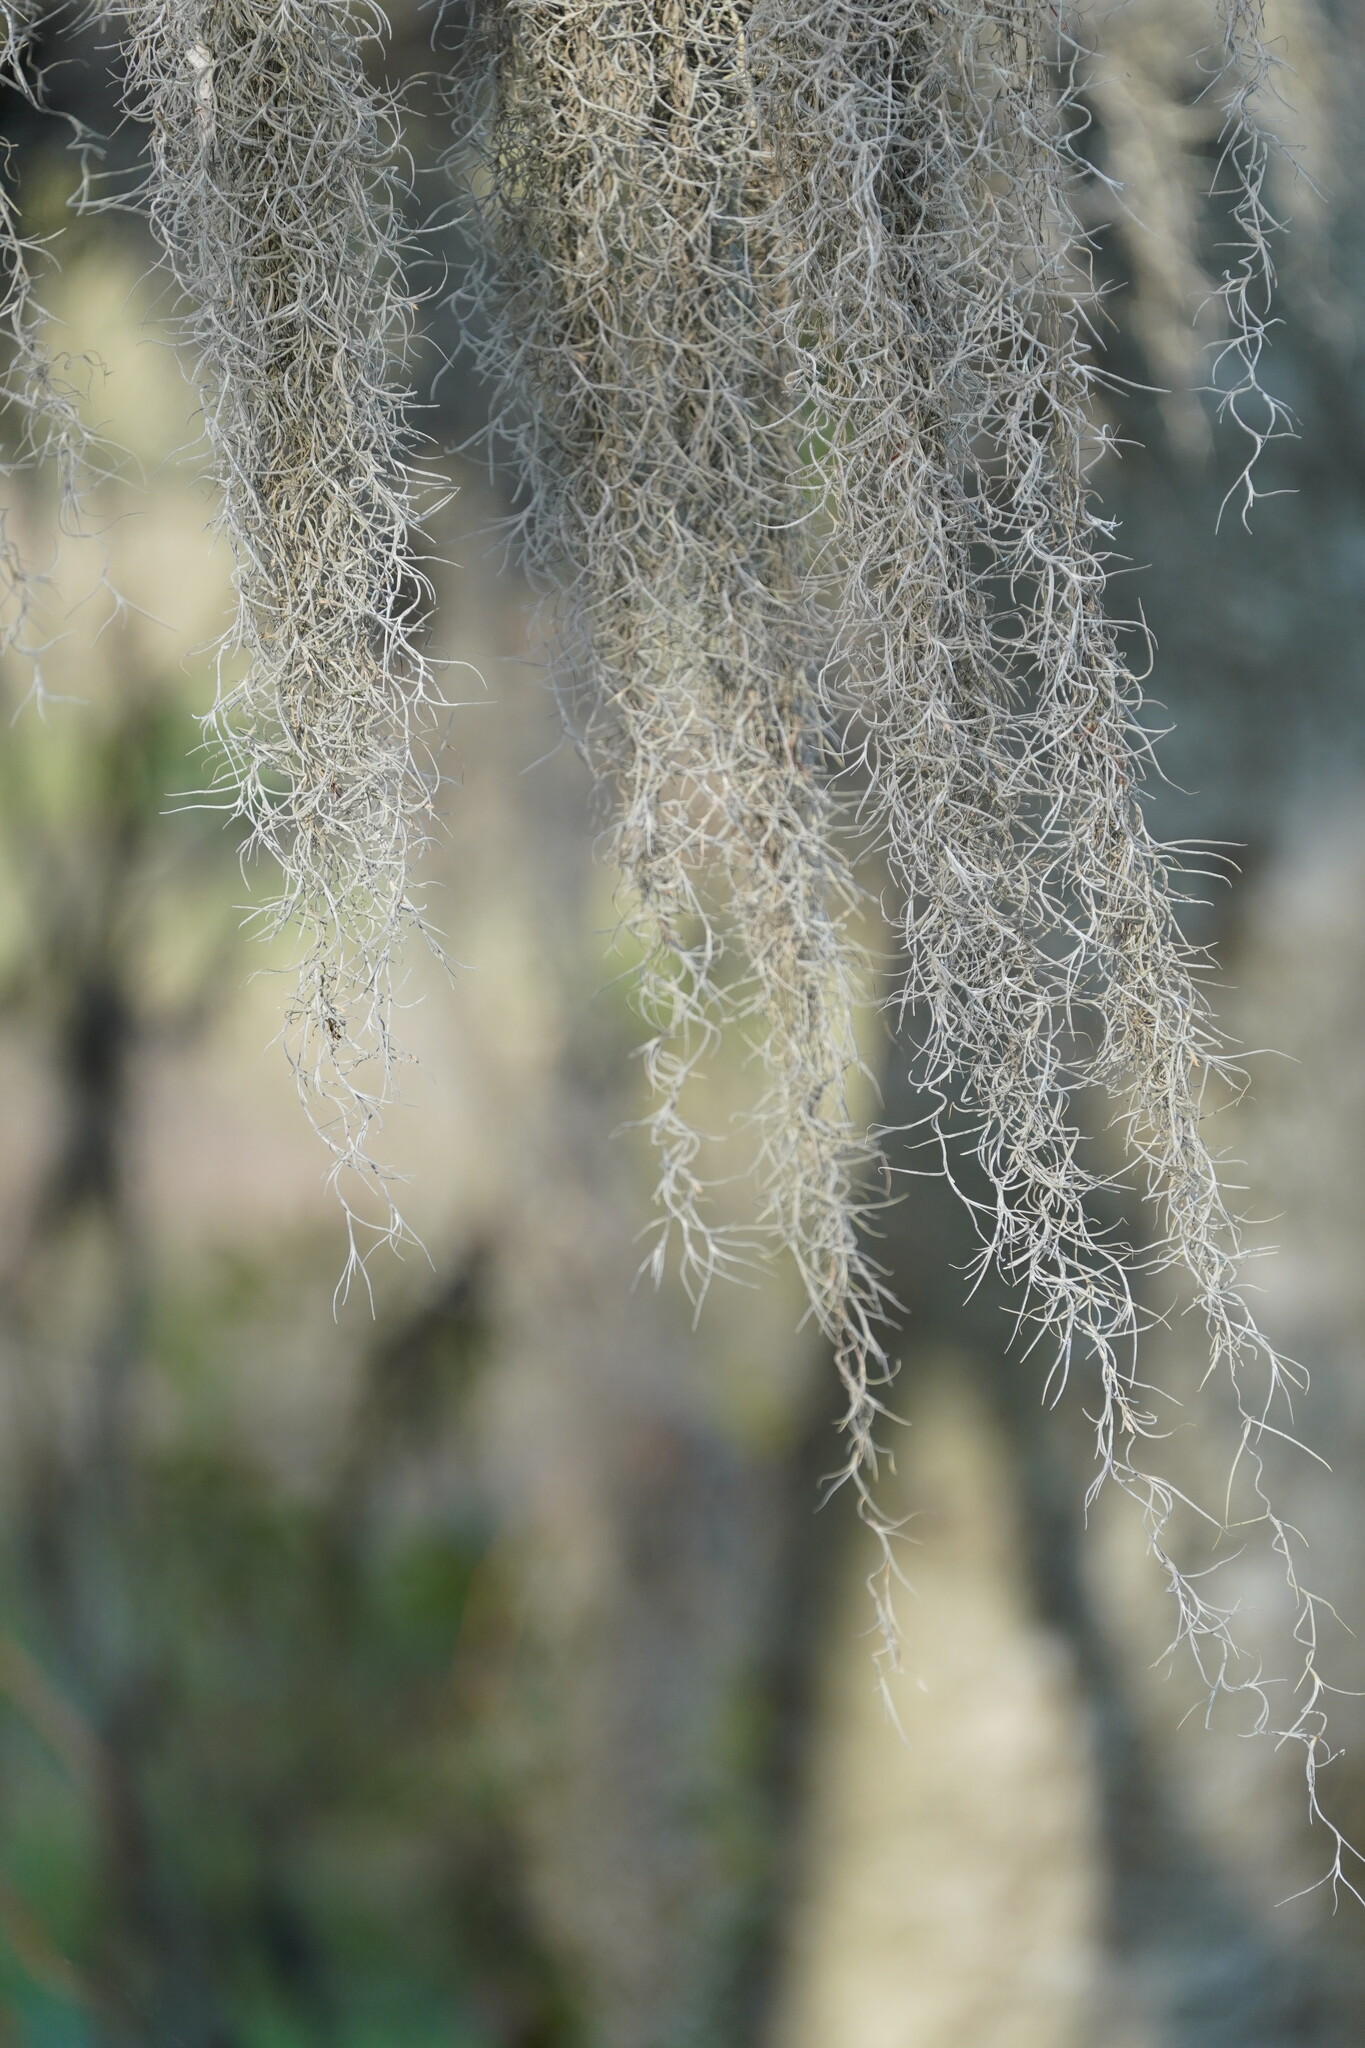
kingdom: Plantae
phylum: Tracheophyta
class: Liliopsida
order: Poales
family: Bromeliaceae
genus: Tillandsia
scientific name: Tillandsia usneoides
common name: Spanish moss
